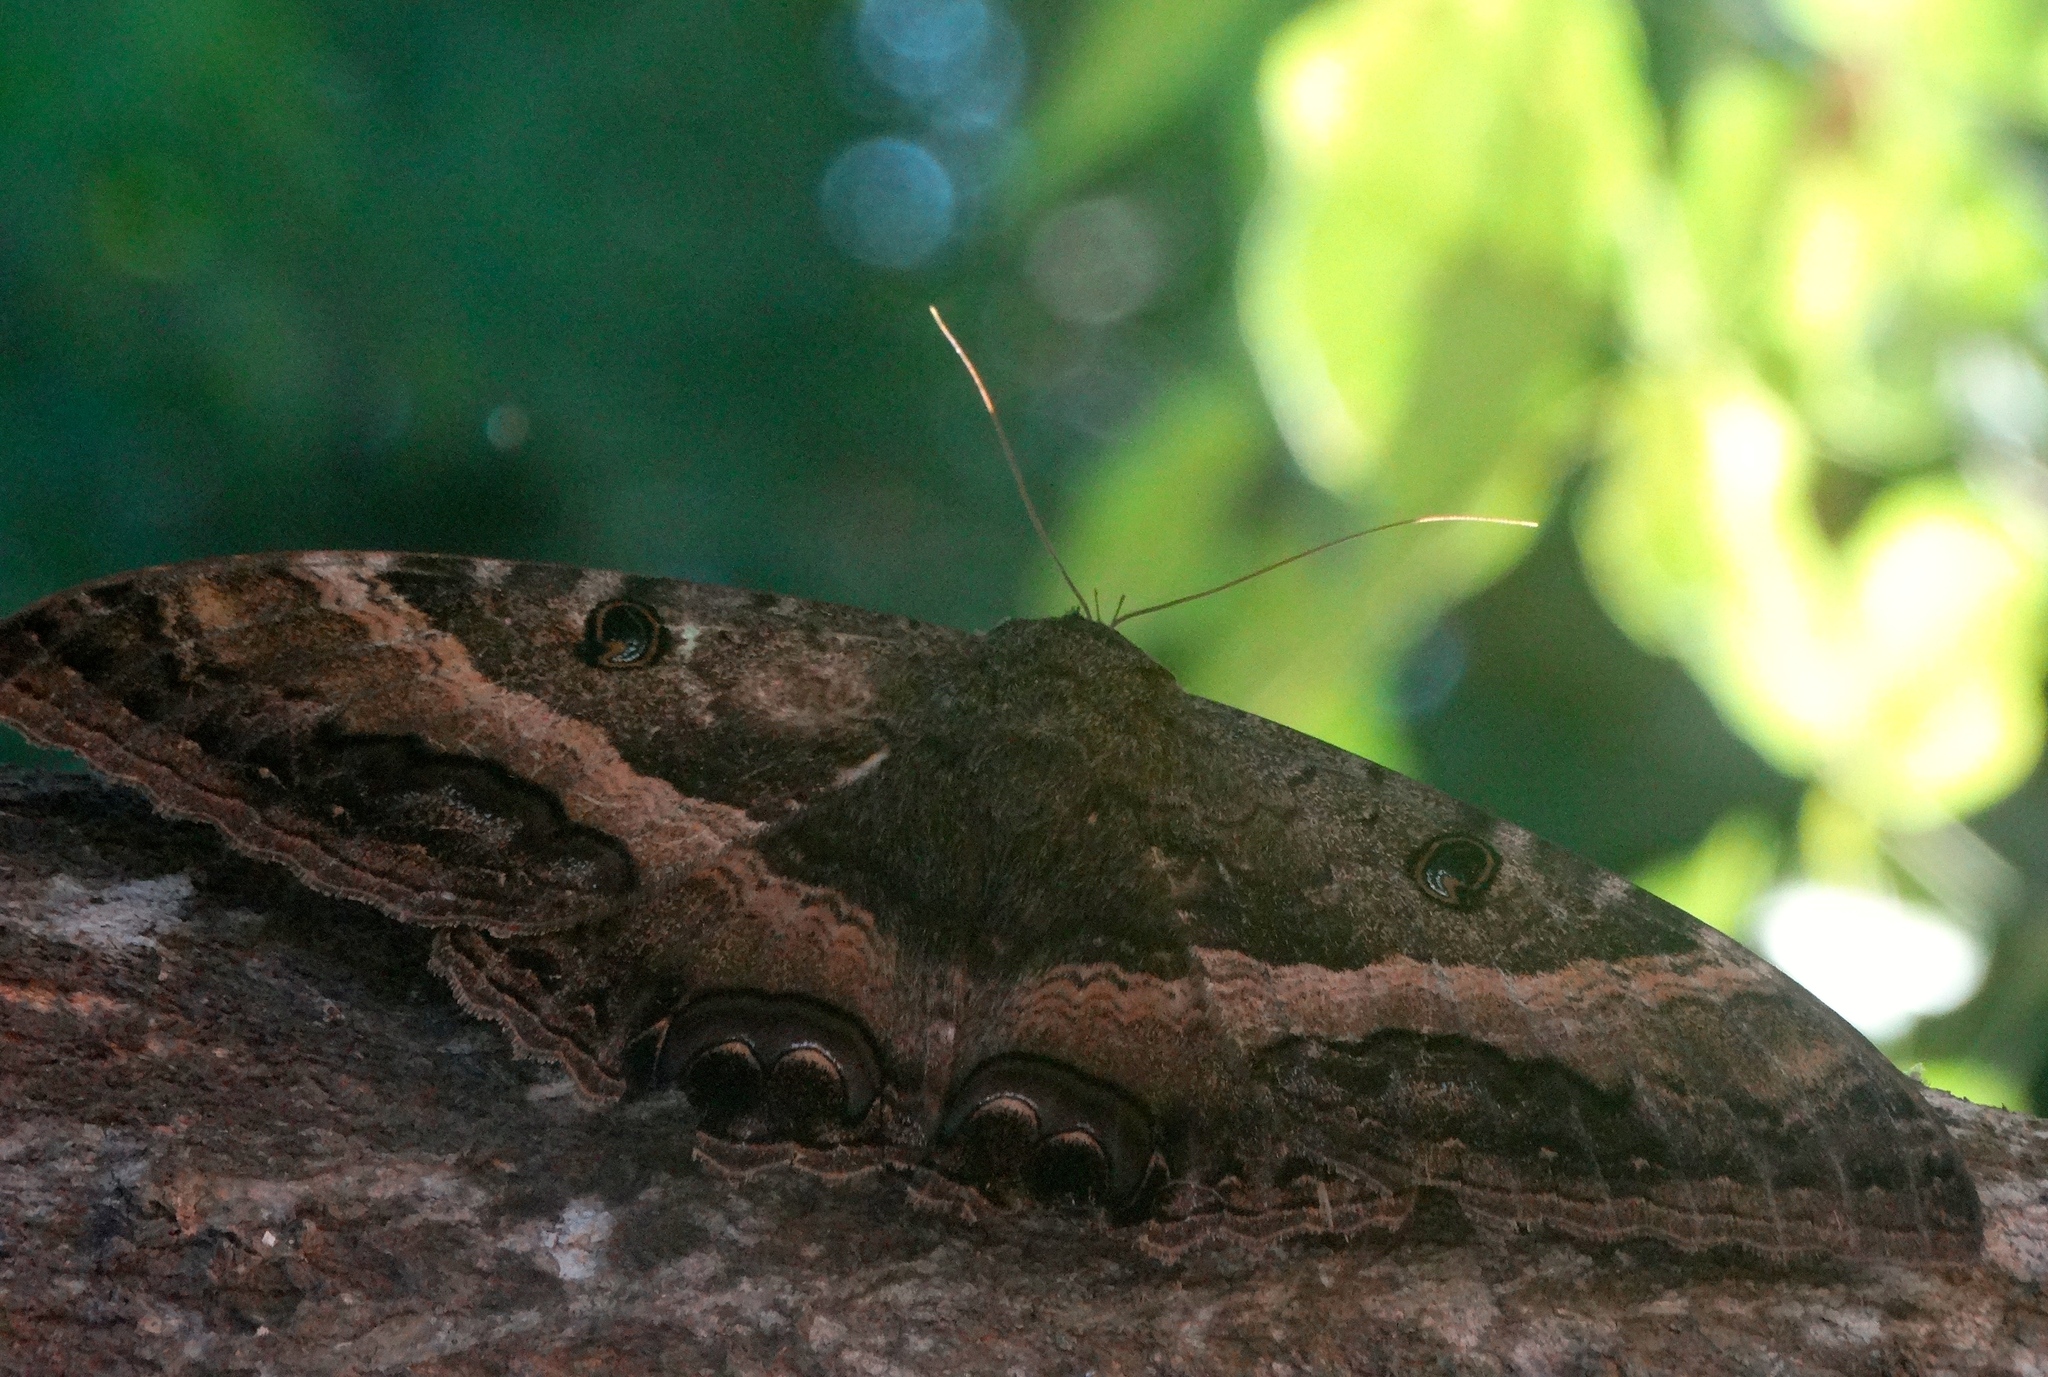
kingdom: Animalia
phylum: Arthropoda
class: Insecta
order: Lepidoptera
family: Erebidae
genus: Ascalapha
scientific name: Ascalapha odorata
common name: Black witch
